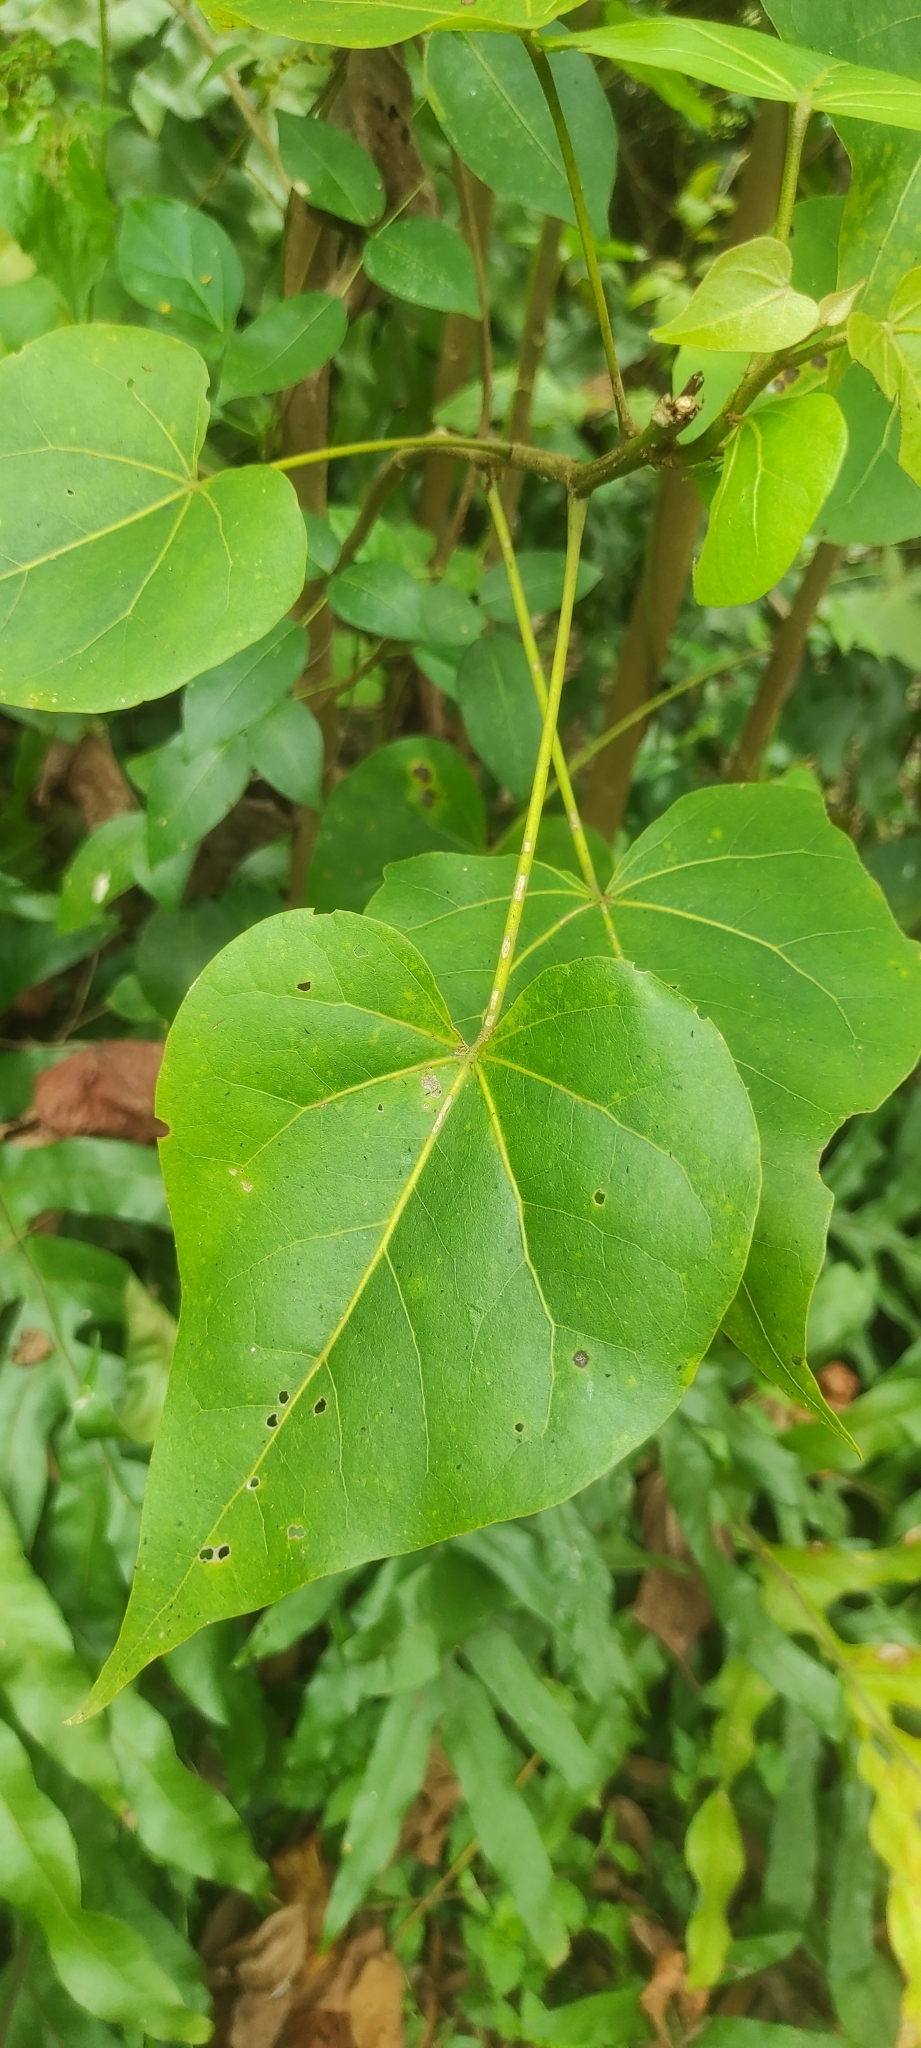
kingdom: Plantae
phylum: Tracheophyta
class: Magnoliopsida
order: Malvales
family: Malvaceae
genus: Thespesia
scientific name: Thespesia populnea
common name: Seaside mahoe
